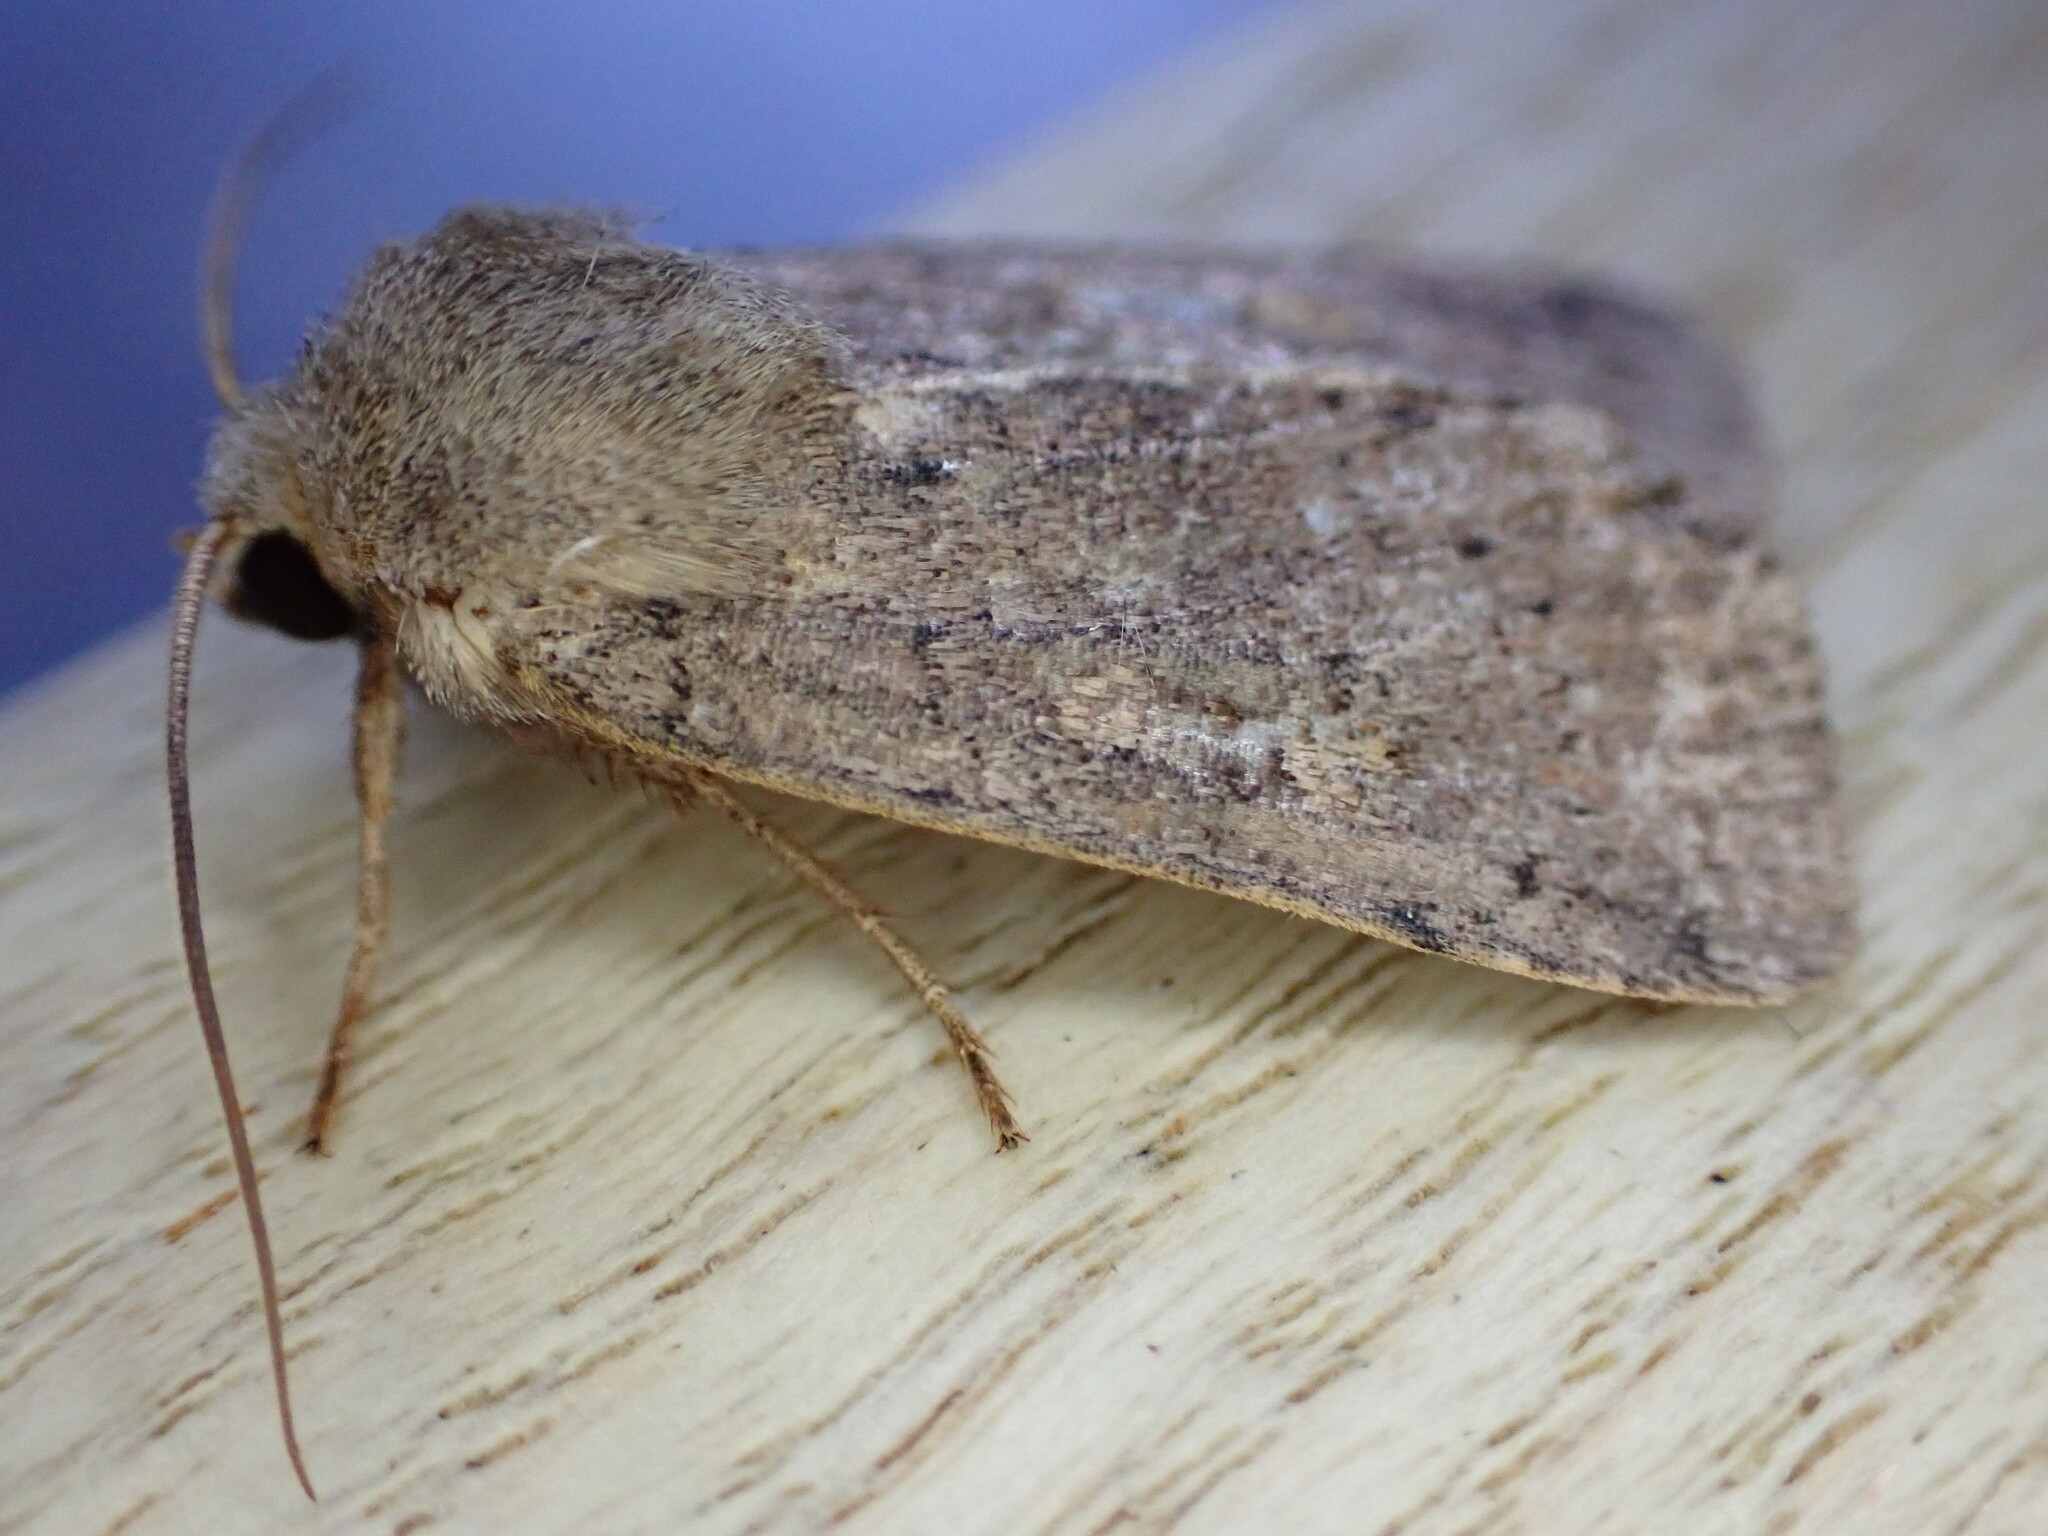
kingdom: Animalia
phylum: Arthropoda
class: Insecta
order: Lepidoptera
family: Noctuidae
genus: Xestia
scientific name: Xestia xanthographa
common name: Square-spot rustic
